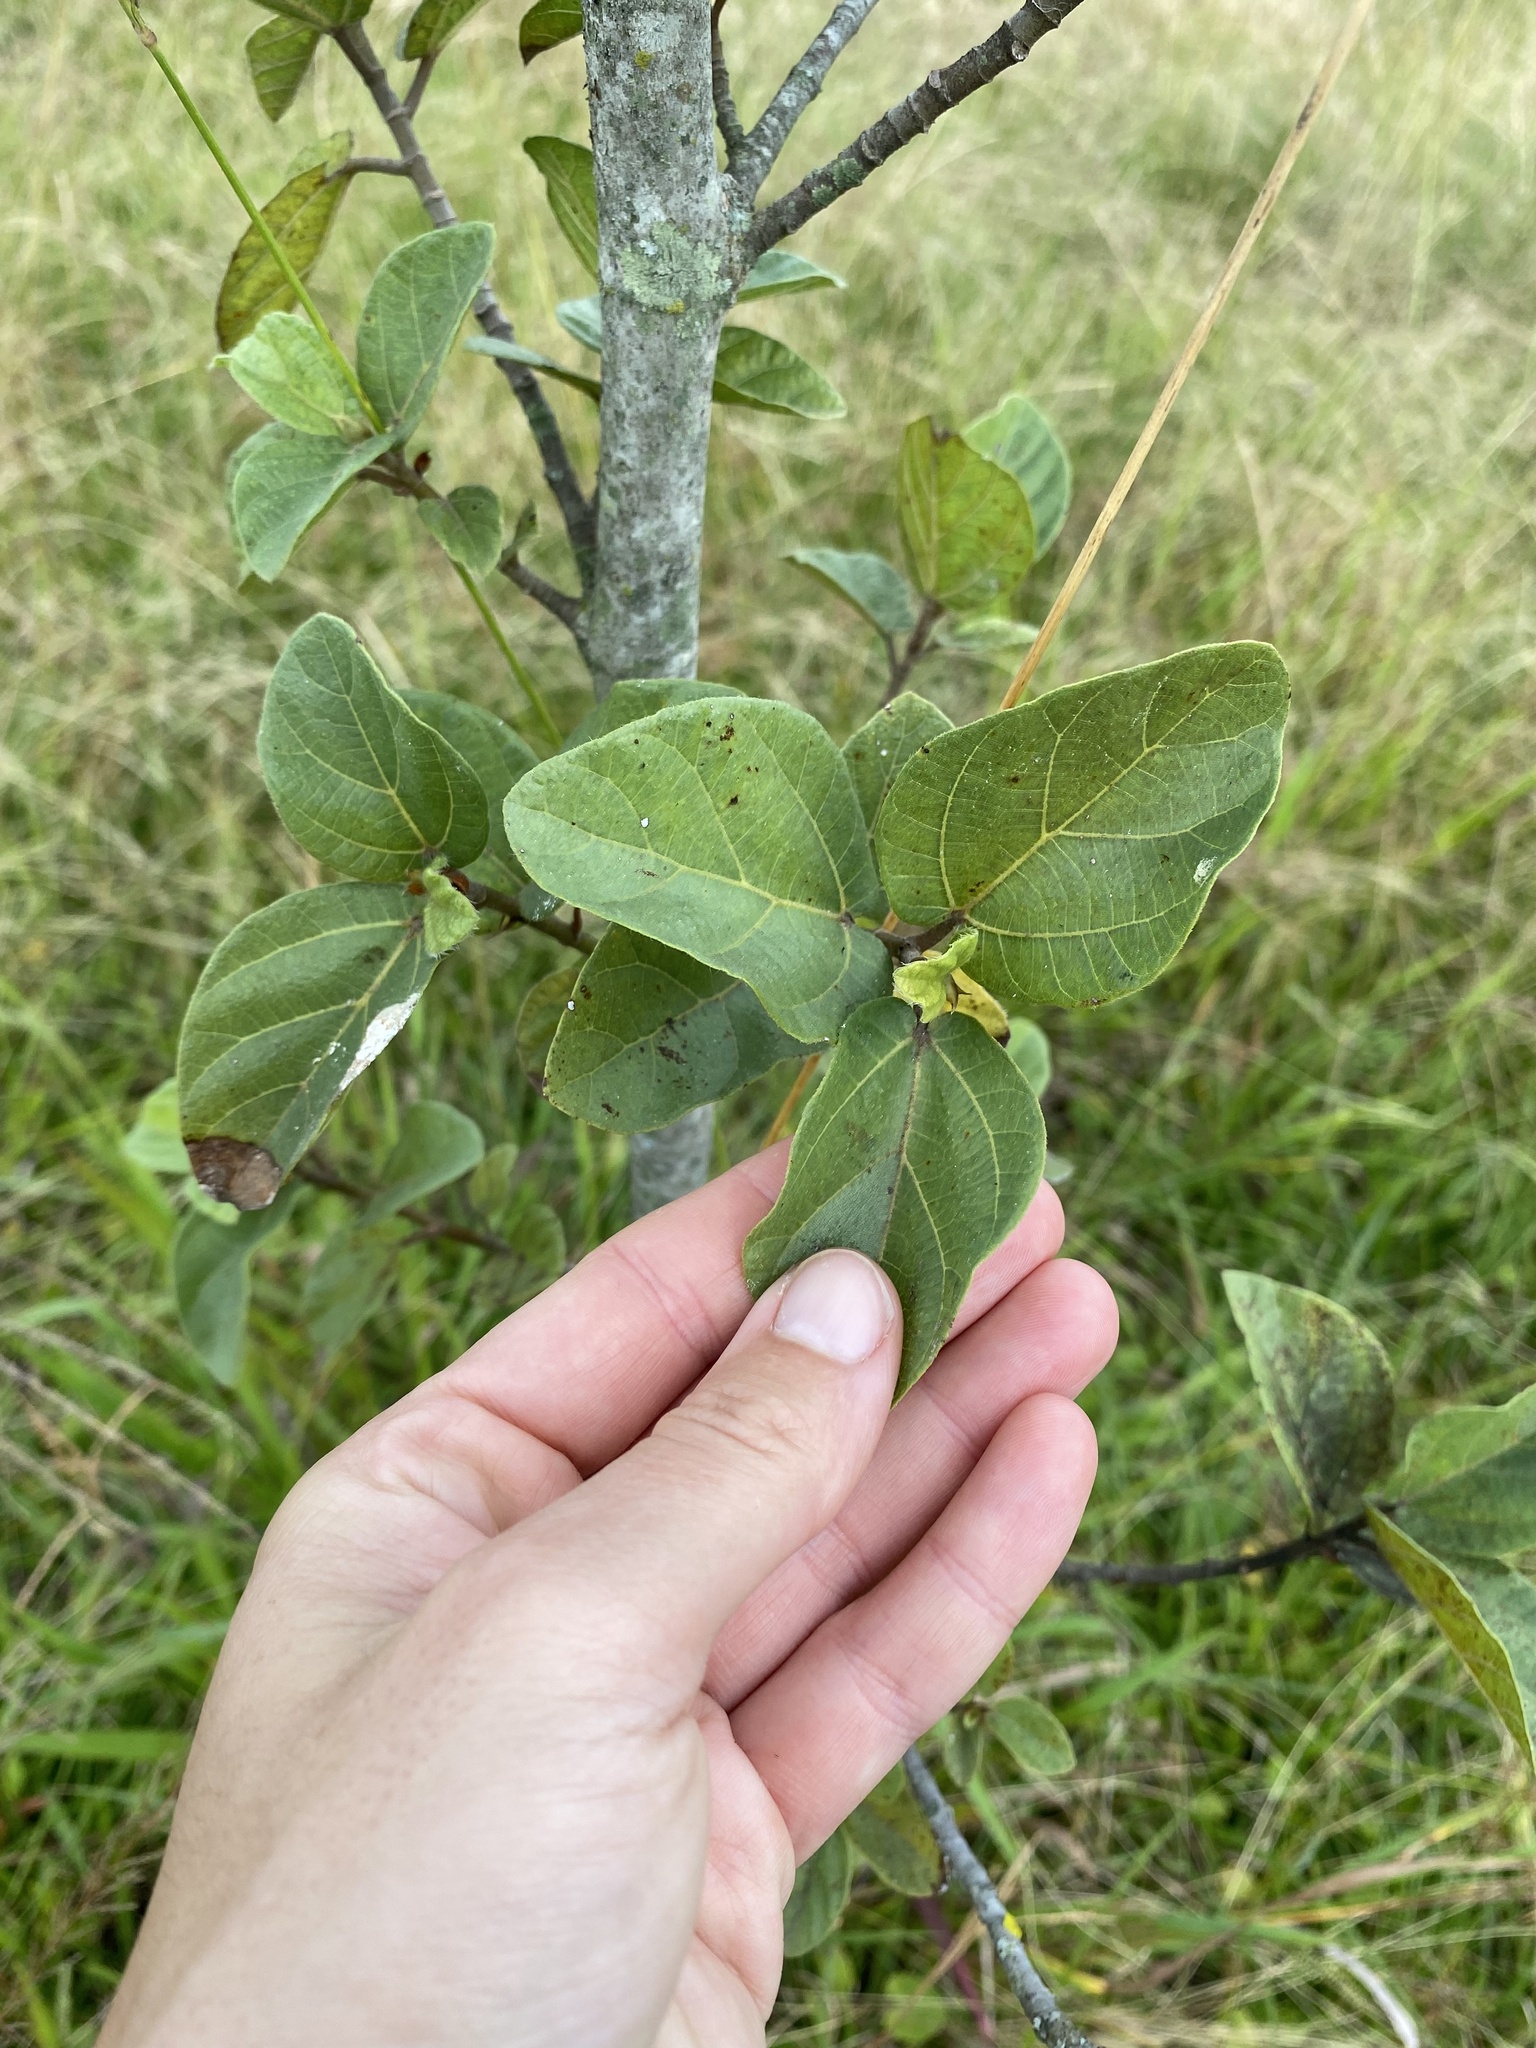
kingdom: Plantae
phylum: Tracheophyta
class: Magnoliopsida
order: Rosales
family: Moraceae
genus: Ficus
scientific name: Ficus sycomorus
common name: Sycomore
